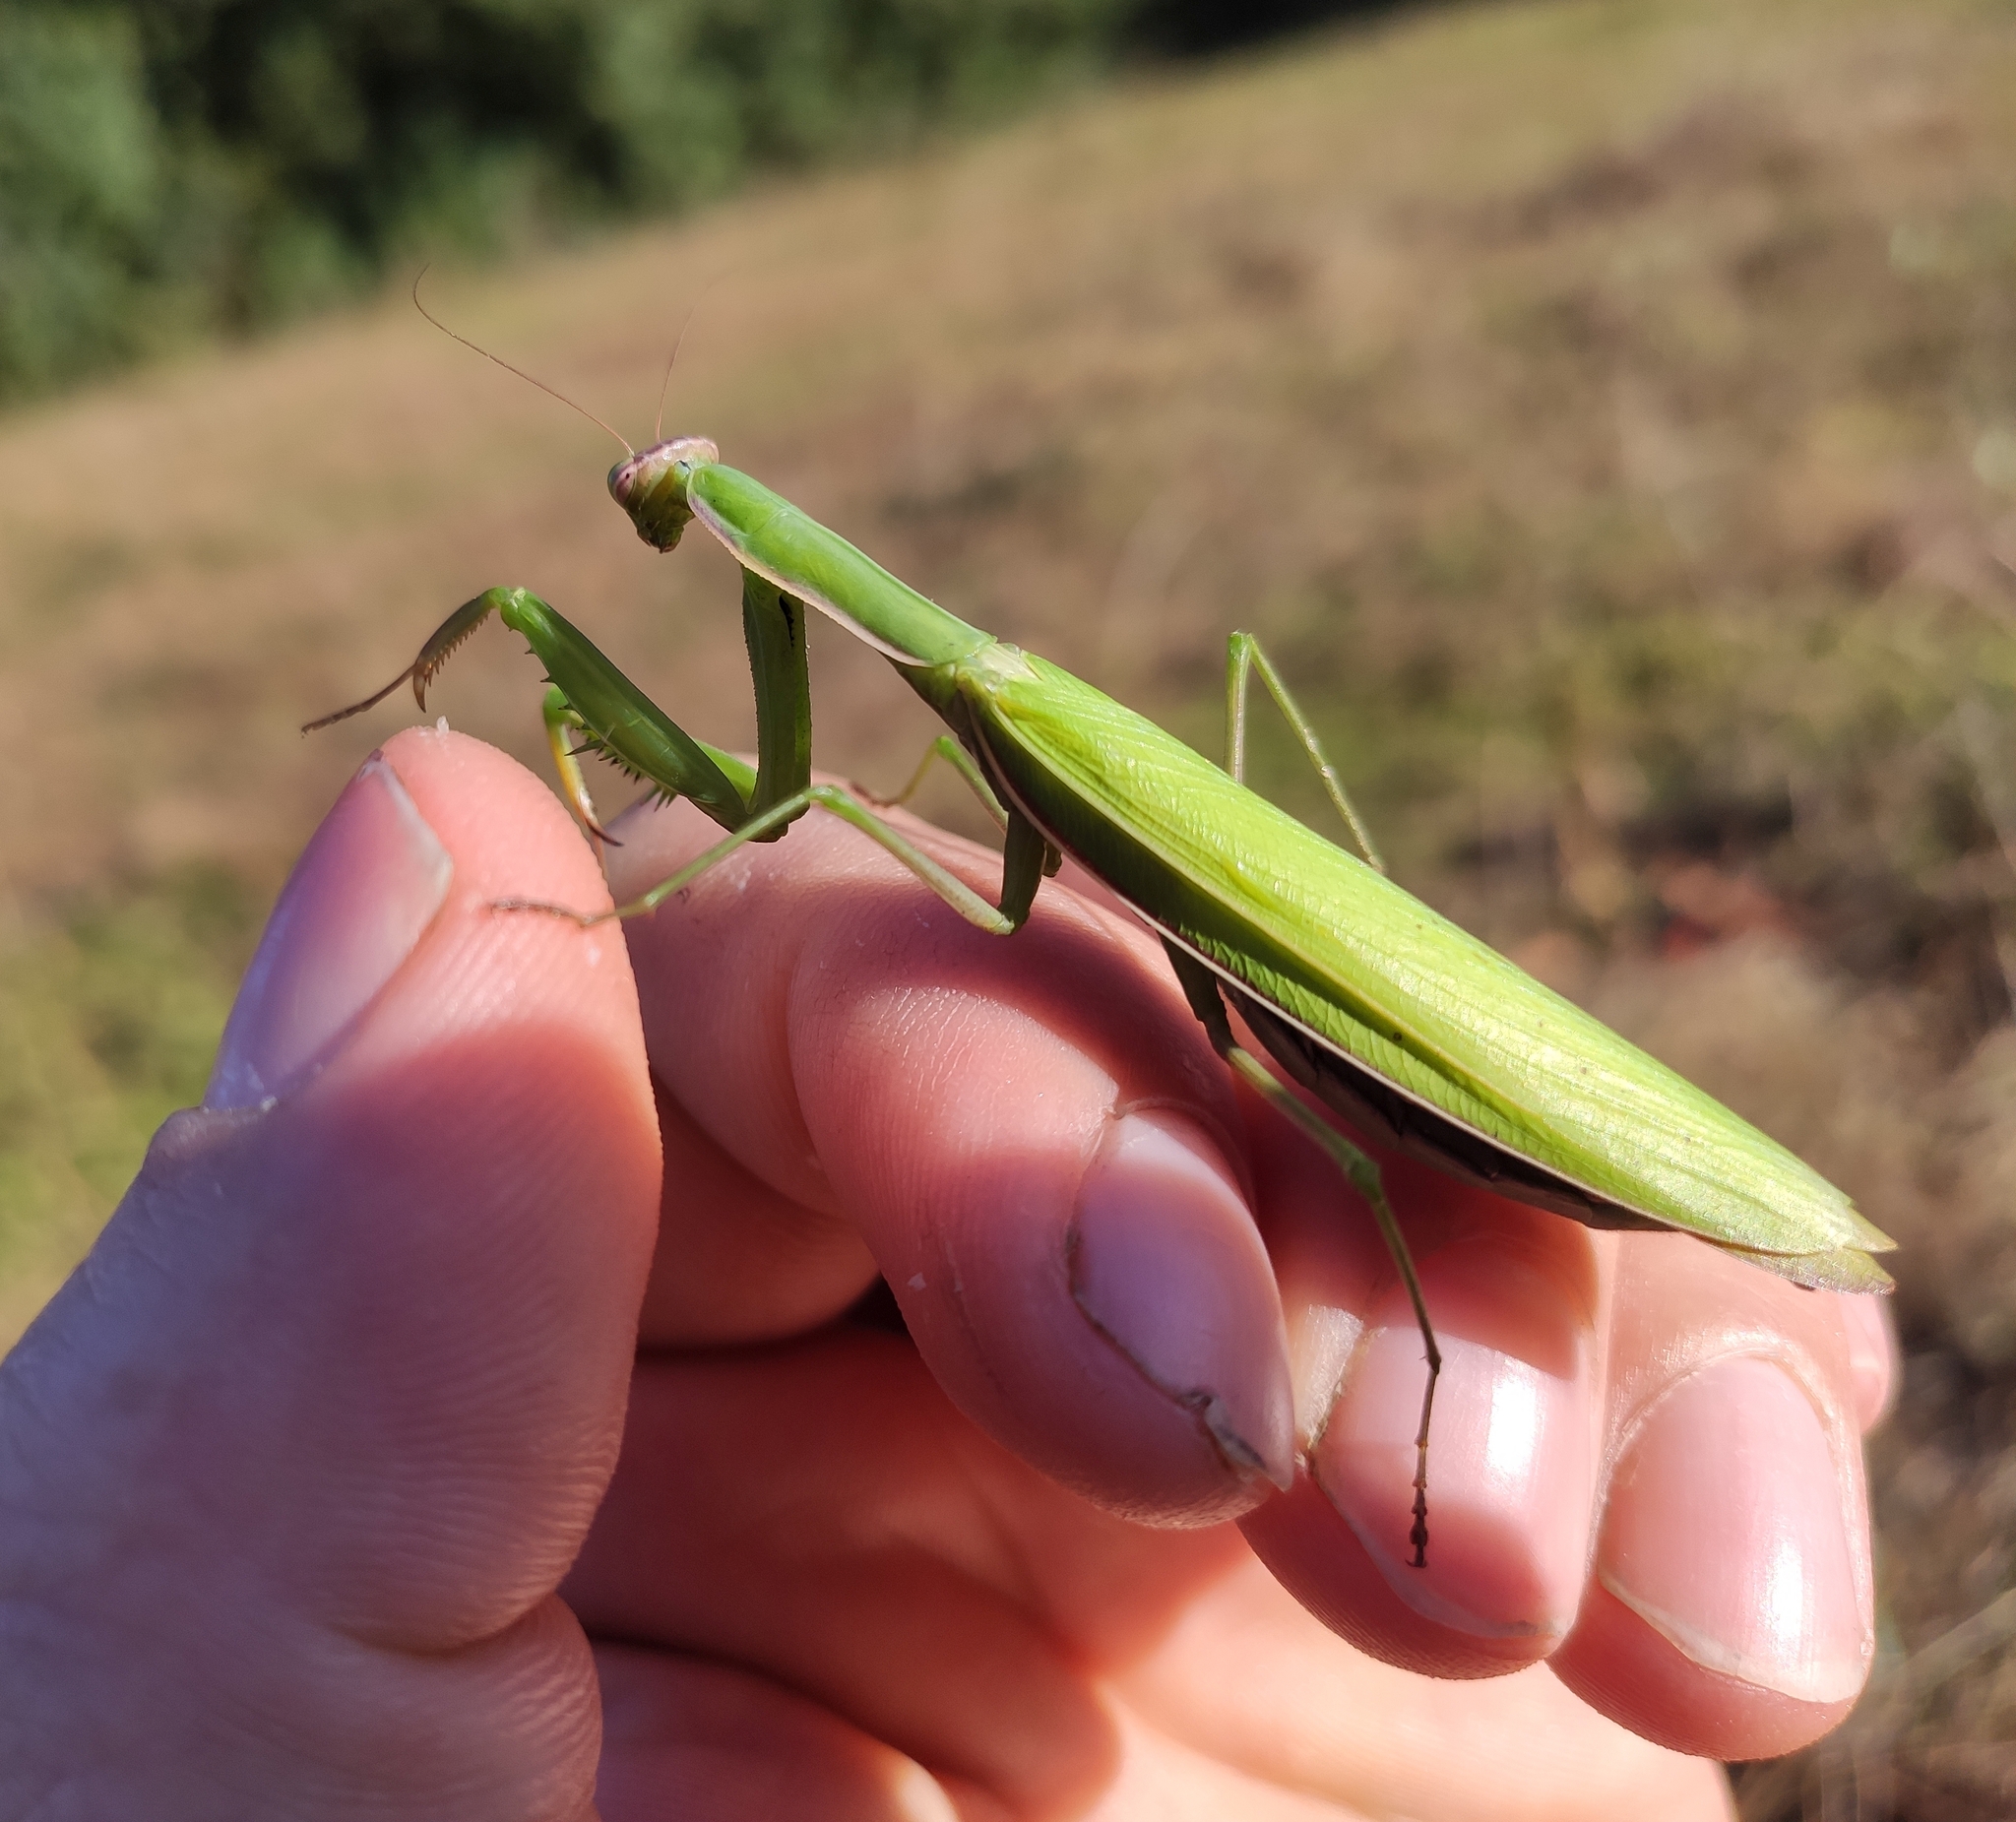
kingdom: Animalia
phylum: Arthropoda
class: Insecta
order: Mantodea
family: Mantidae
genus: Mantis
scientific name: Mantis religiosa
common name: Praying mantis
